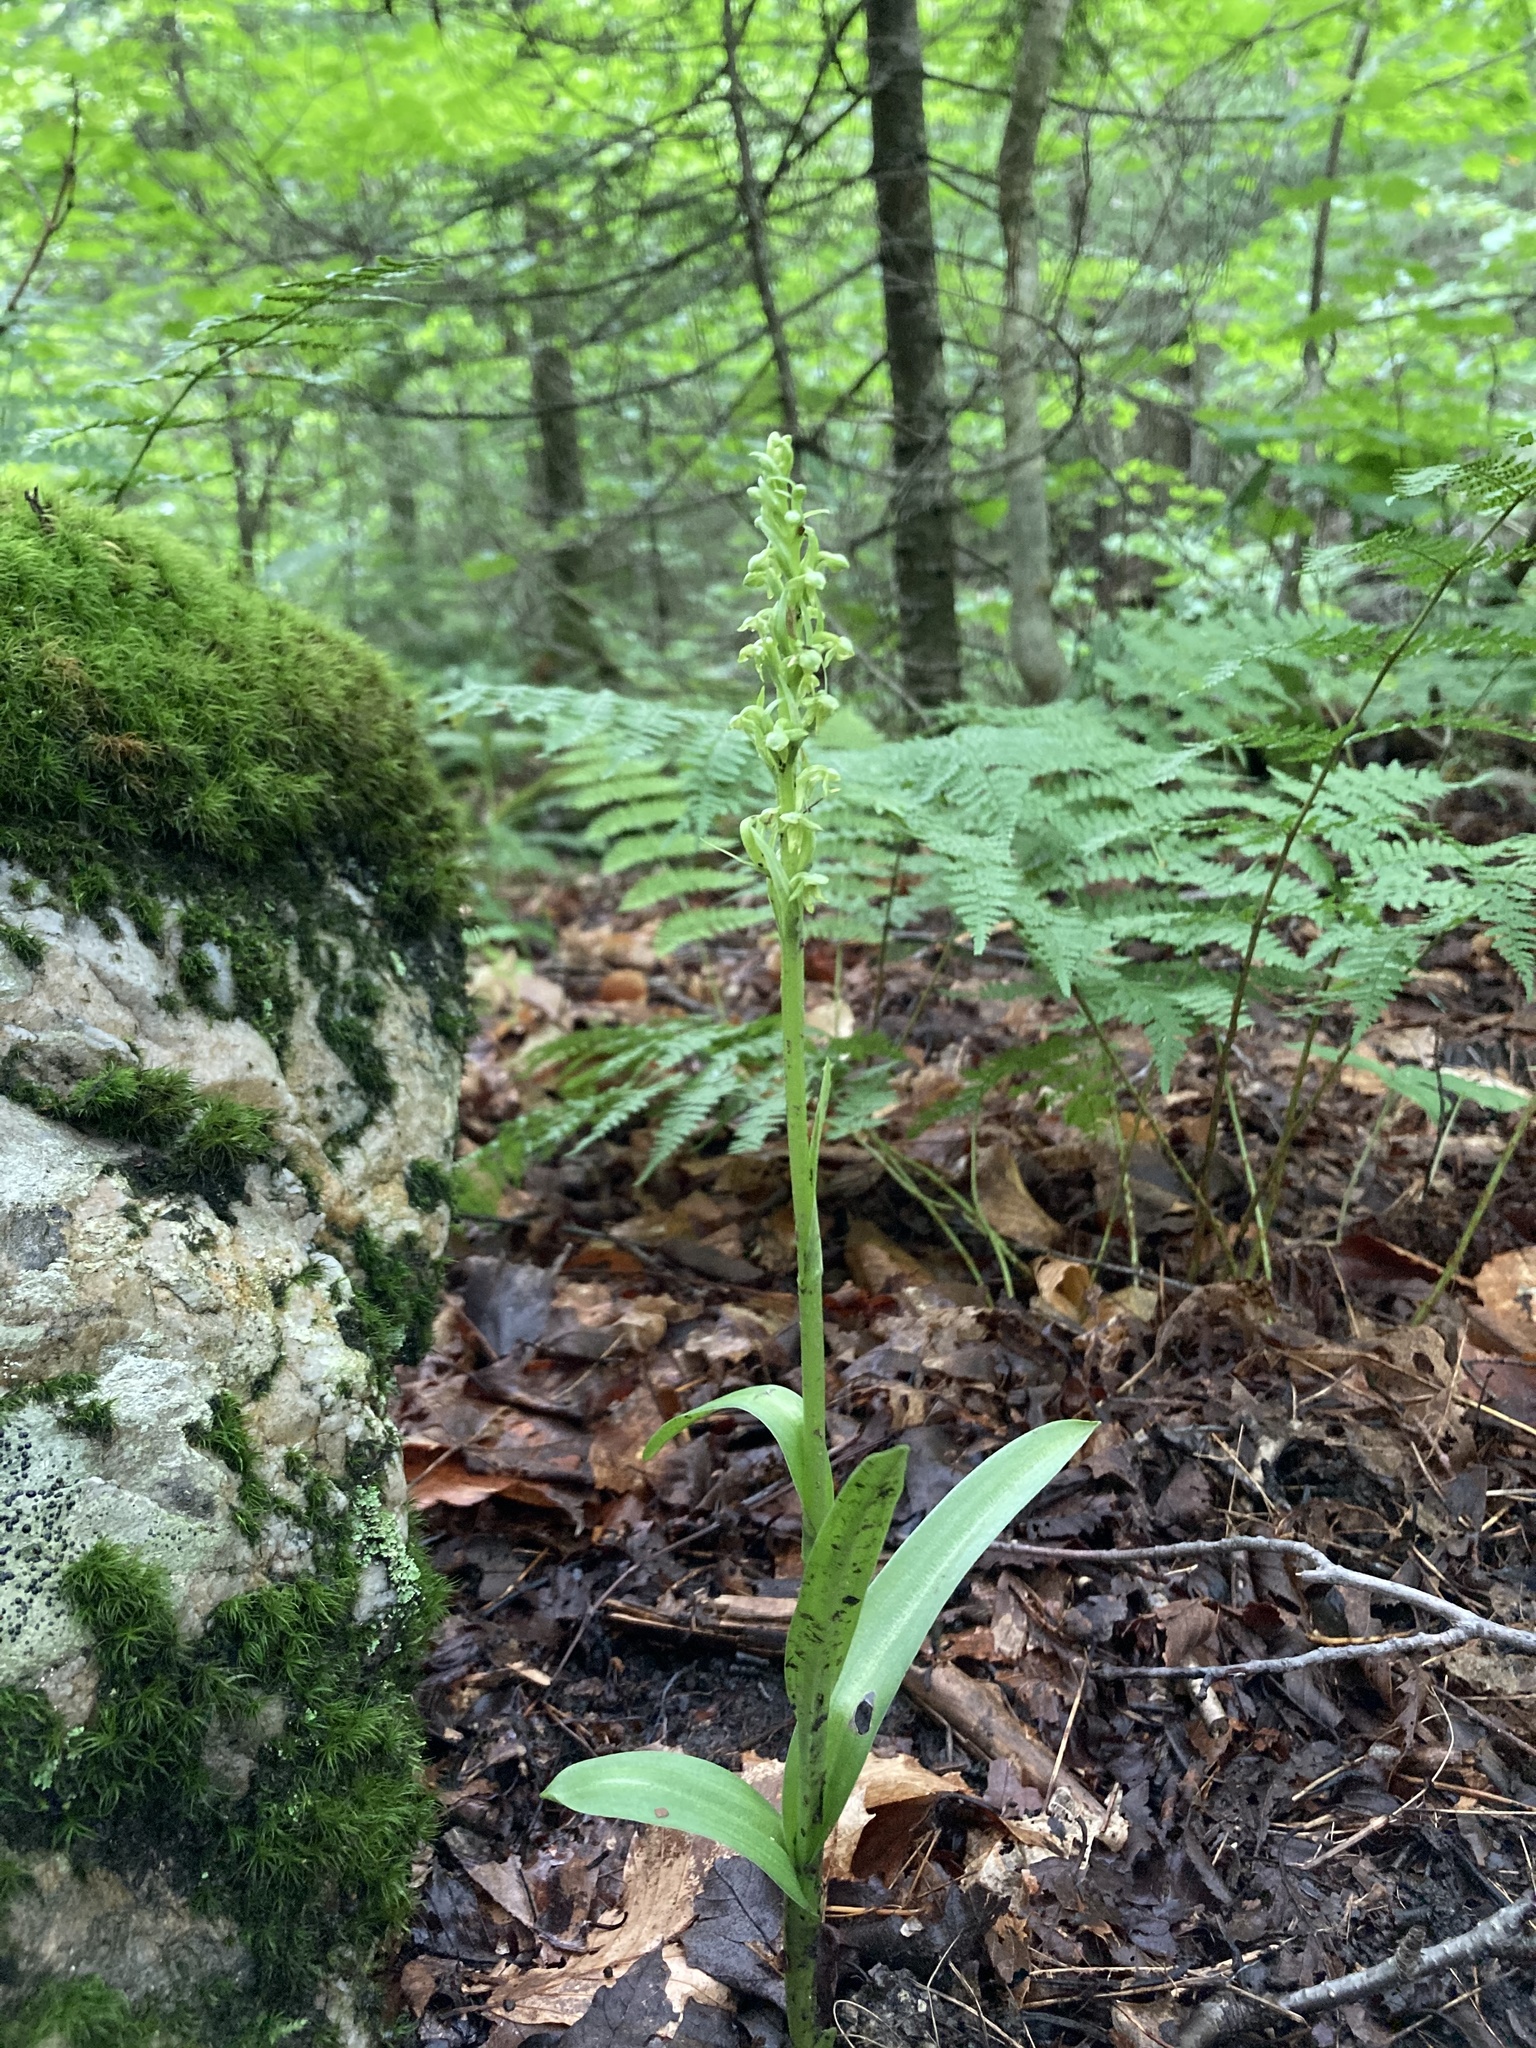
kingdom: Plantae
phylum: Tracheophyta
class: Liliopsida
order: Asparagales
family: Orchidaceae
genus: Platanthera
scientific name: Platanthera aquilonis
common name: Northern green orchid
